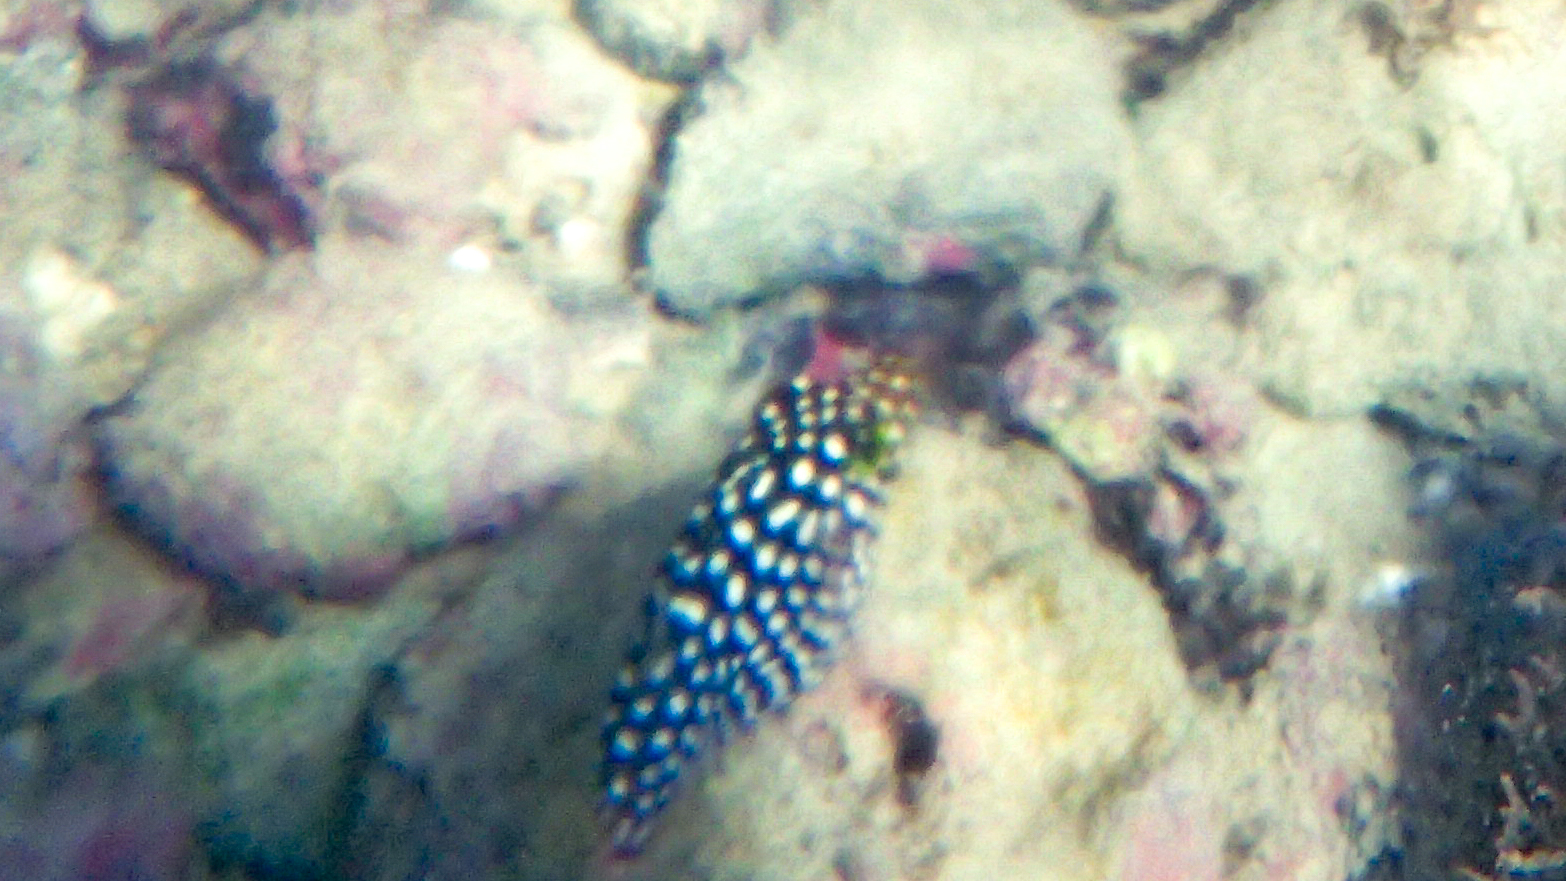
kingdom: Animalia
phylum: Chordata
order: Tetraodontiformes
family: Tetraodontidae
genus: Canthigaster
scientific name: Canthigaster jactator
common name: Hawaiian whitespotted toby
